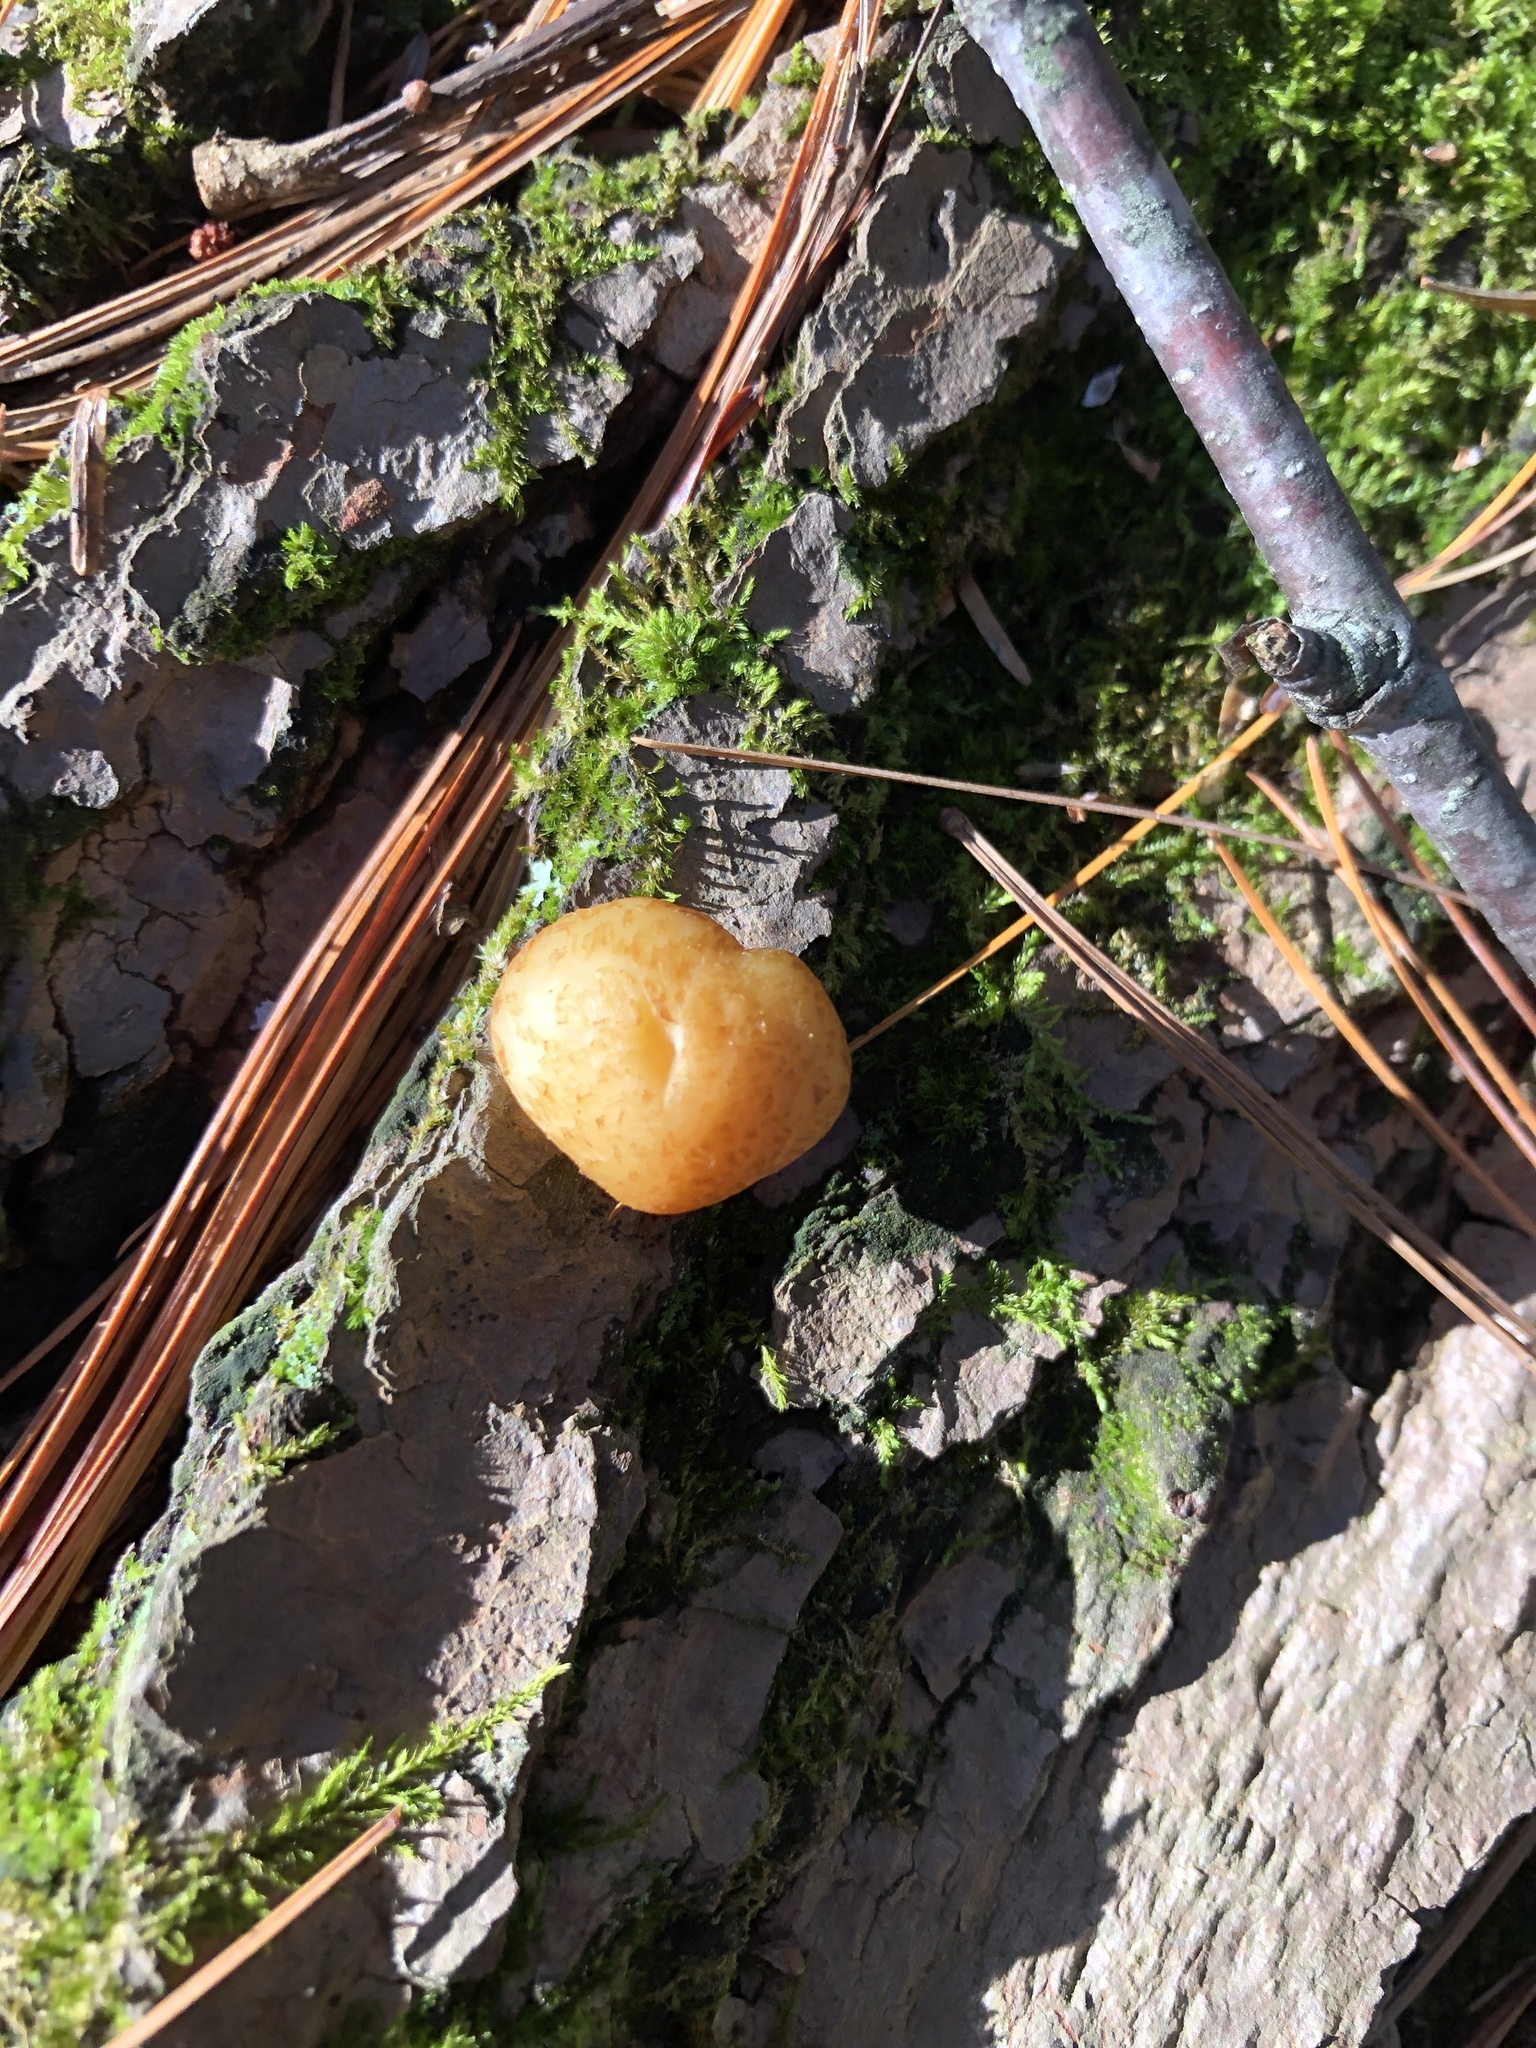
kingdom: Fungi
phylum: Basidiomycota
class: Agaricomycetes
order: Polyporales
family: Polyporaceae
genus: Cryptoporus
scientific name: Cryptoporus volvatus
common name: Veiled polypore
